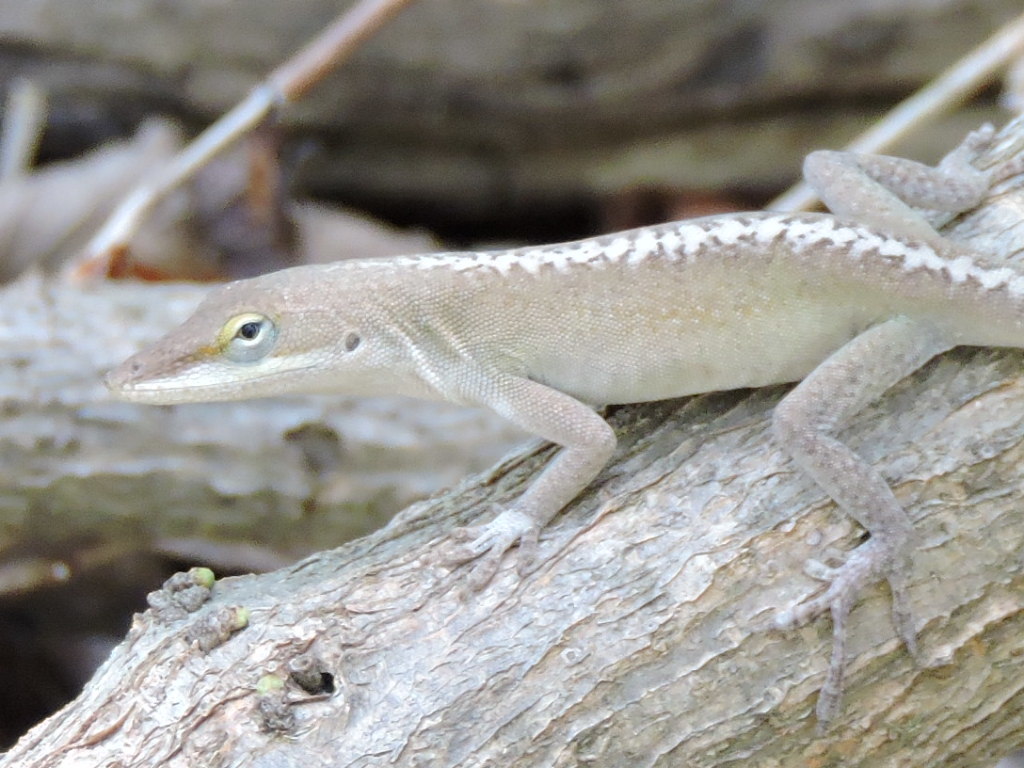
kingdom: Animalia
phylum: Chordata
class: Squamata
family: Dactyloidae
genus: Anolis
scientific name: Anolis carolinensis
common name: Green anole
